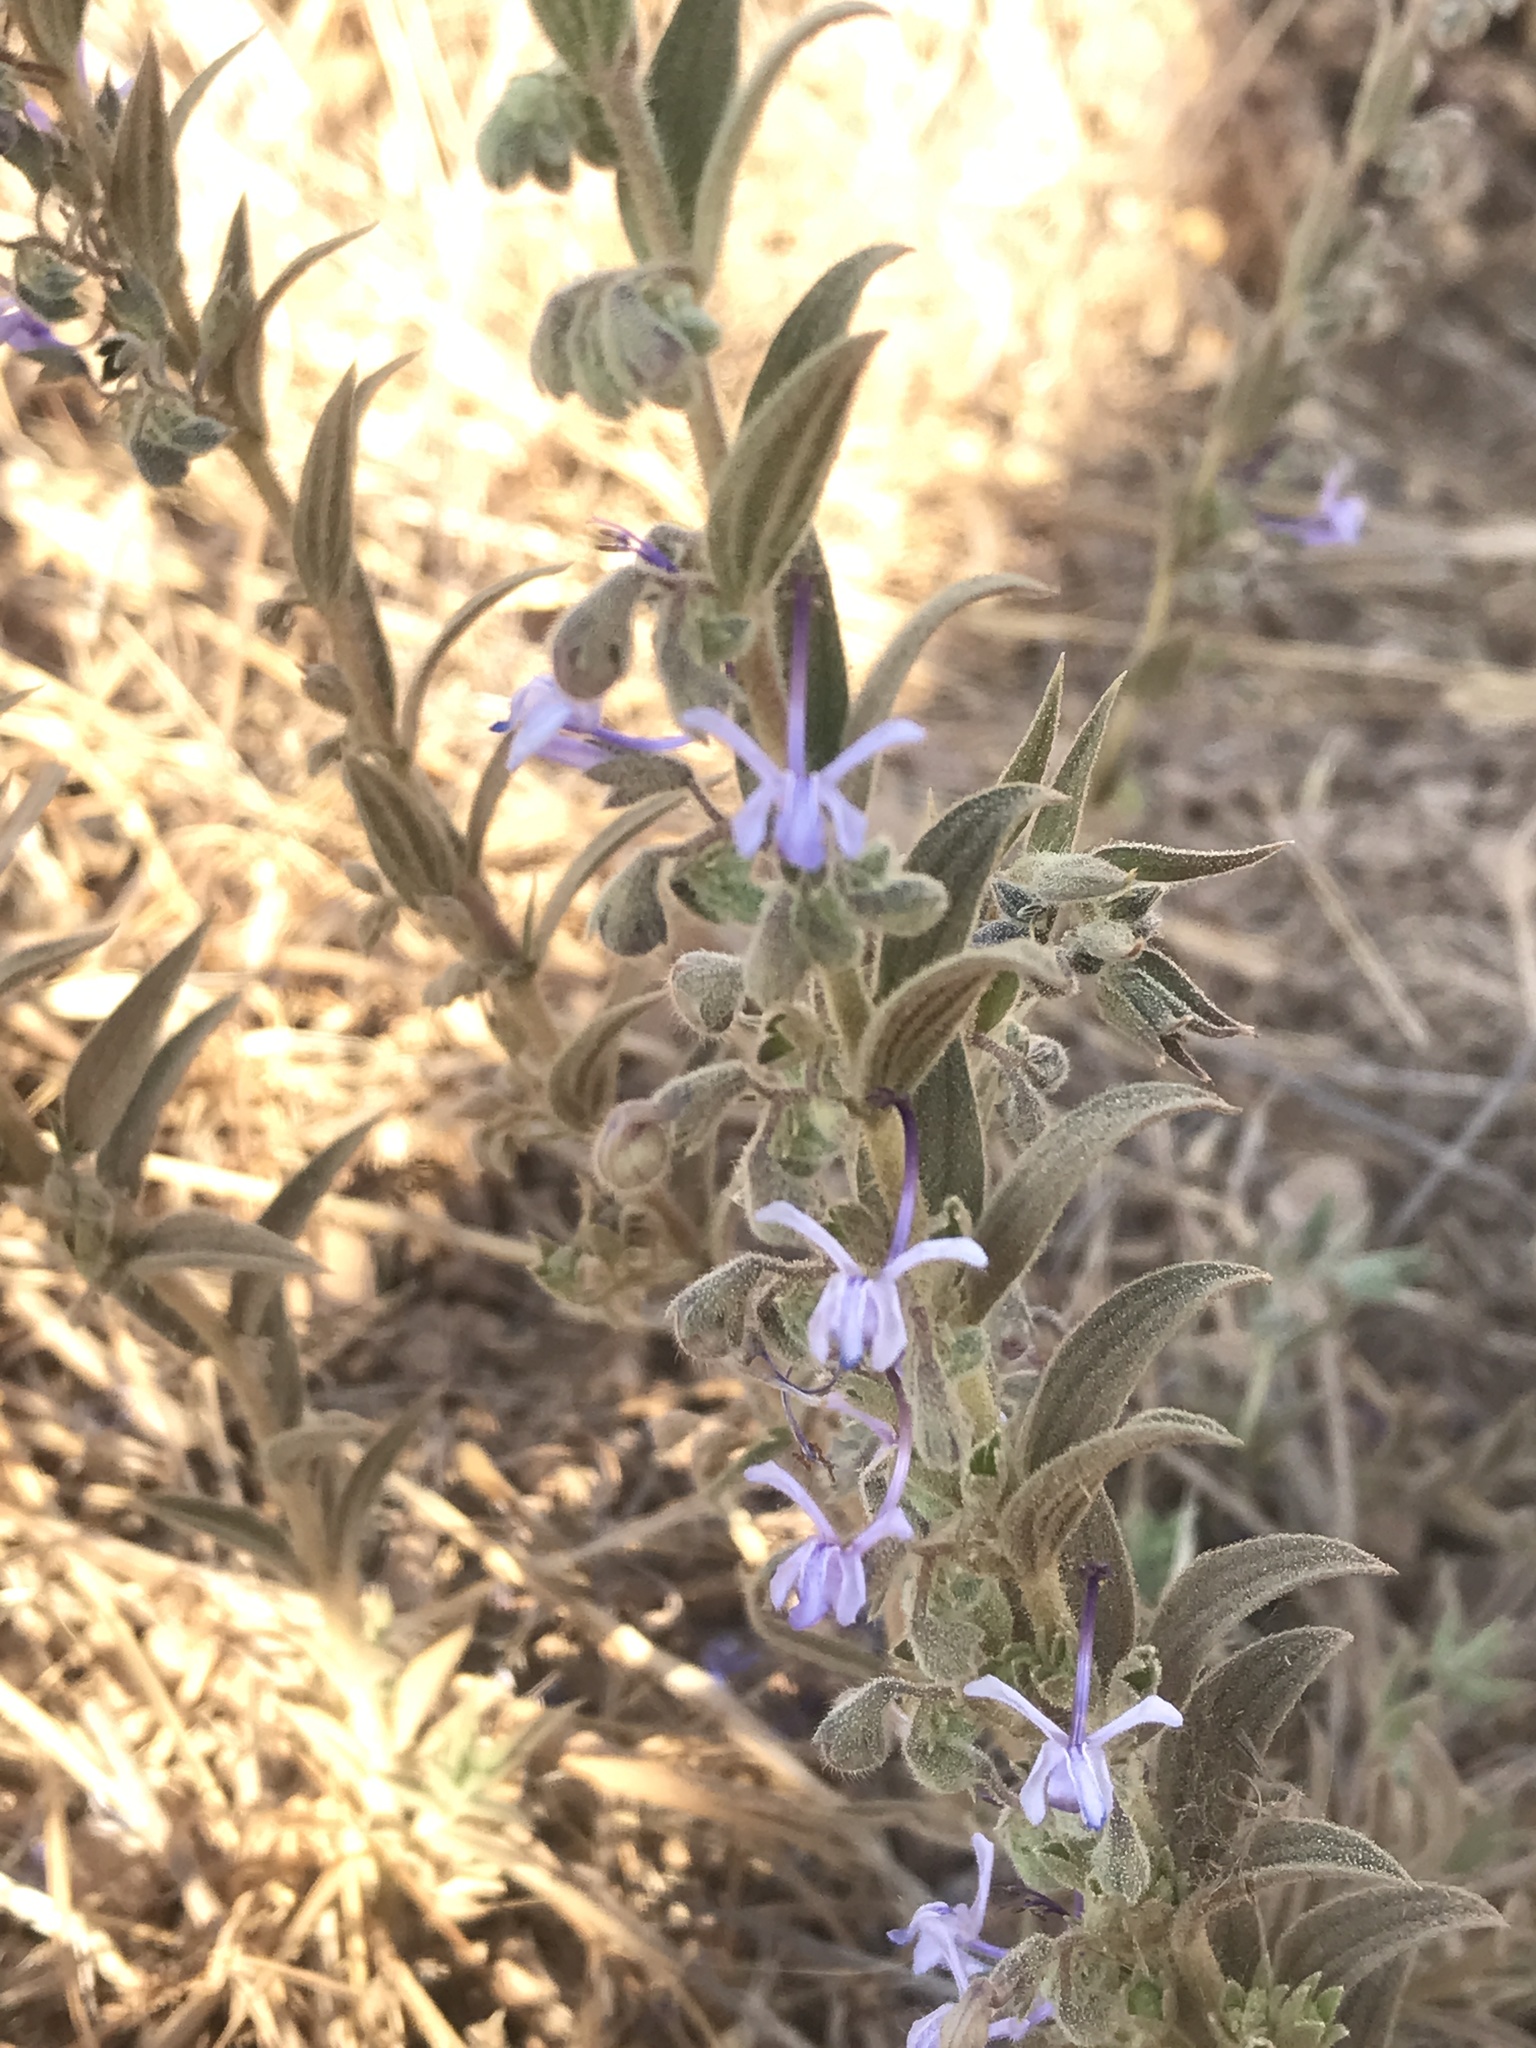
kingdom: Plantae
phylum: Tracheophyta
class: Magnoliopsida
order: Lamiales
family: Lamiaceae
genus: Trichostema
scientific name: Trichostema lanceolatum
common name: Vinegar-weed
